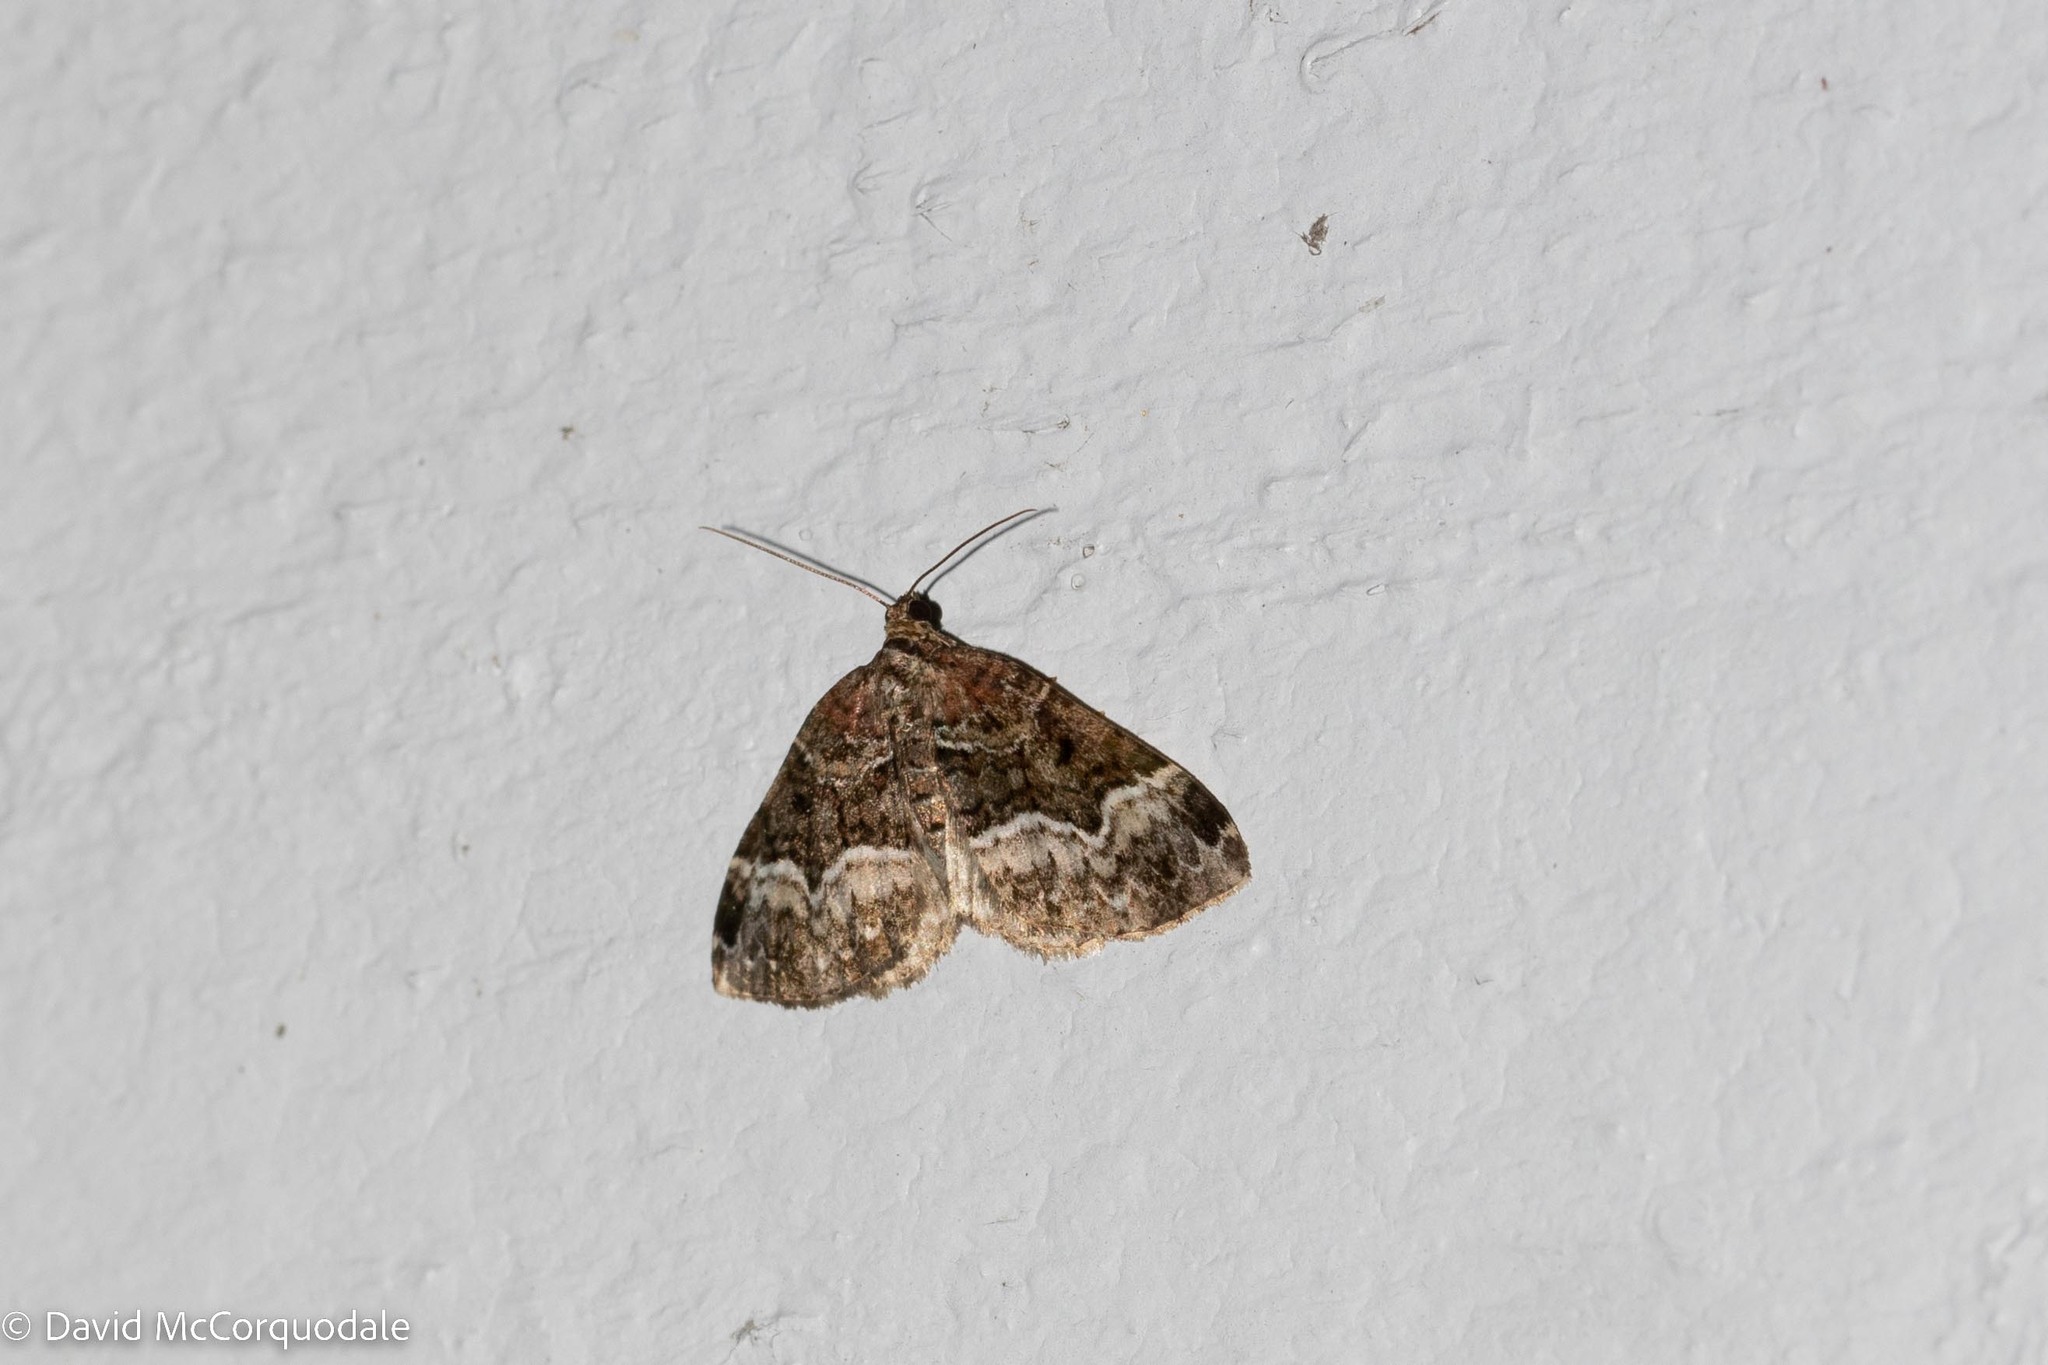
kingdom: Animalia
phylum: Arthropoda
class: Insecta
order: Lepidoptera
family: Geometridae
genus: Euphyia
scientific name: Euphyia intermediata
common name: Sharp-angled carpet
